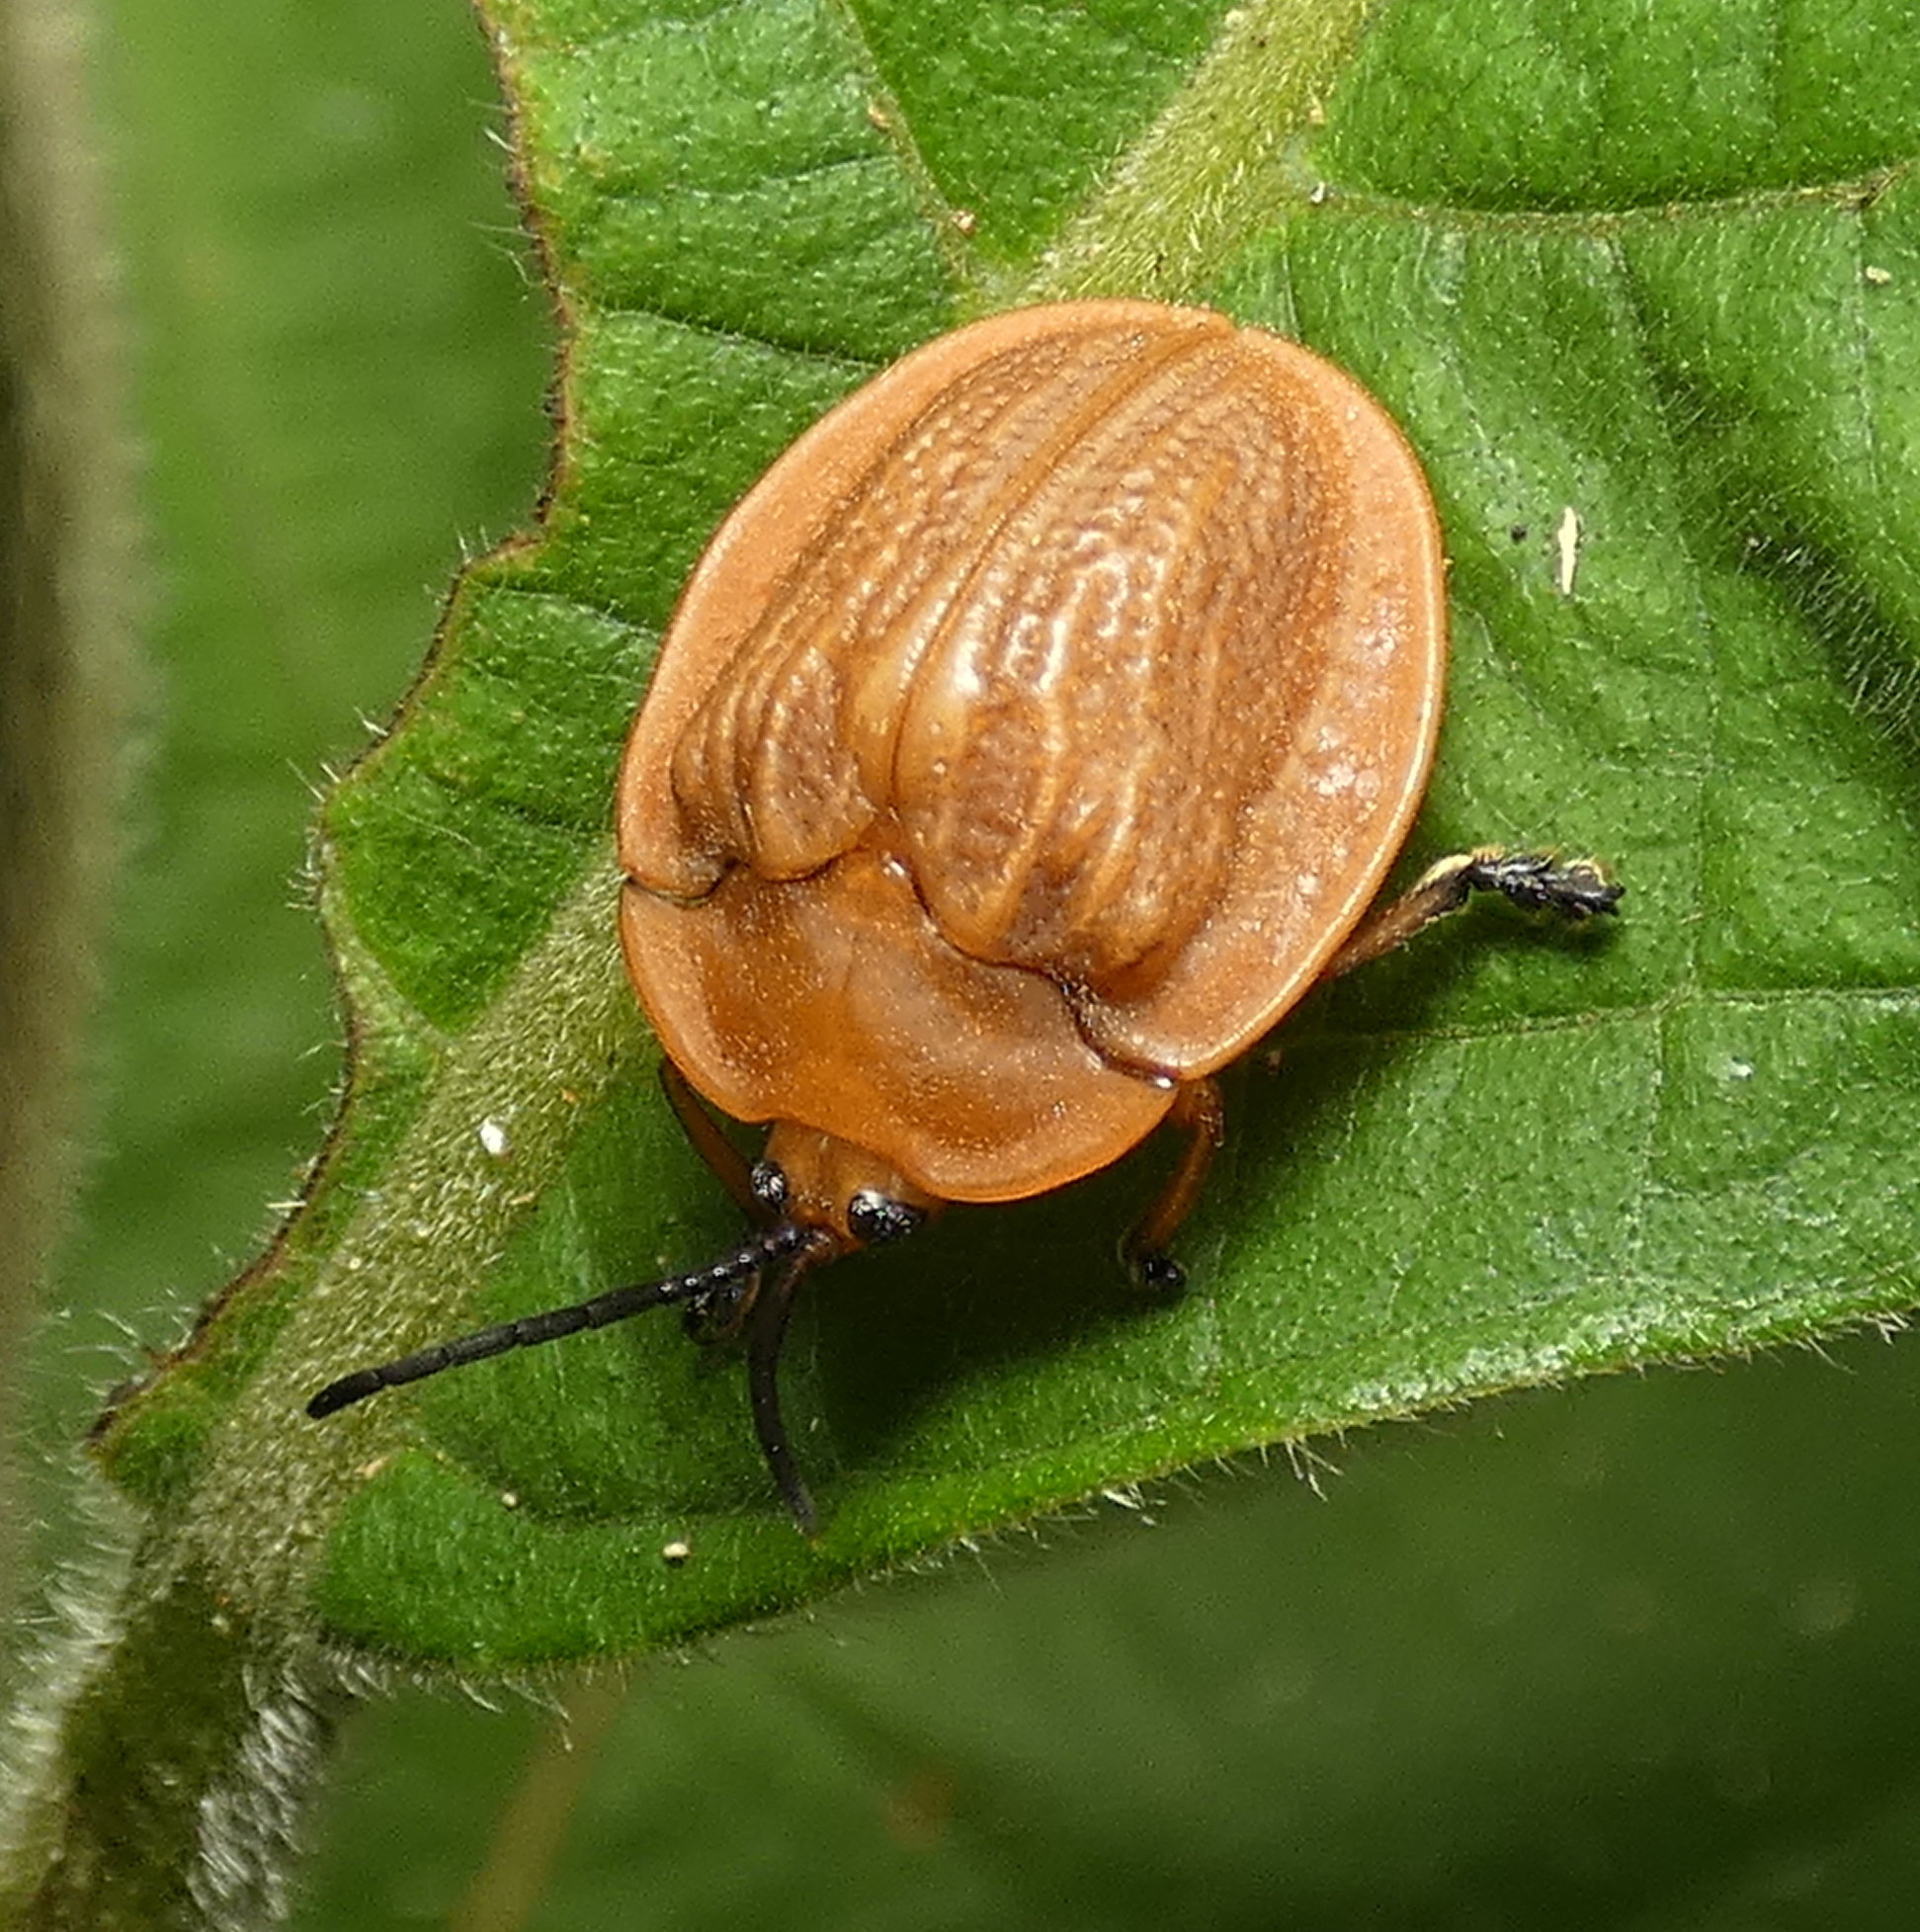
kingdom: Animalia
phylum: Arthropoda
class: Insecta
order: Coleoptera
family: Chrysomelidae
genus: Cyclosoma
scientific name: Cyclosoma nigritarsis
